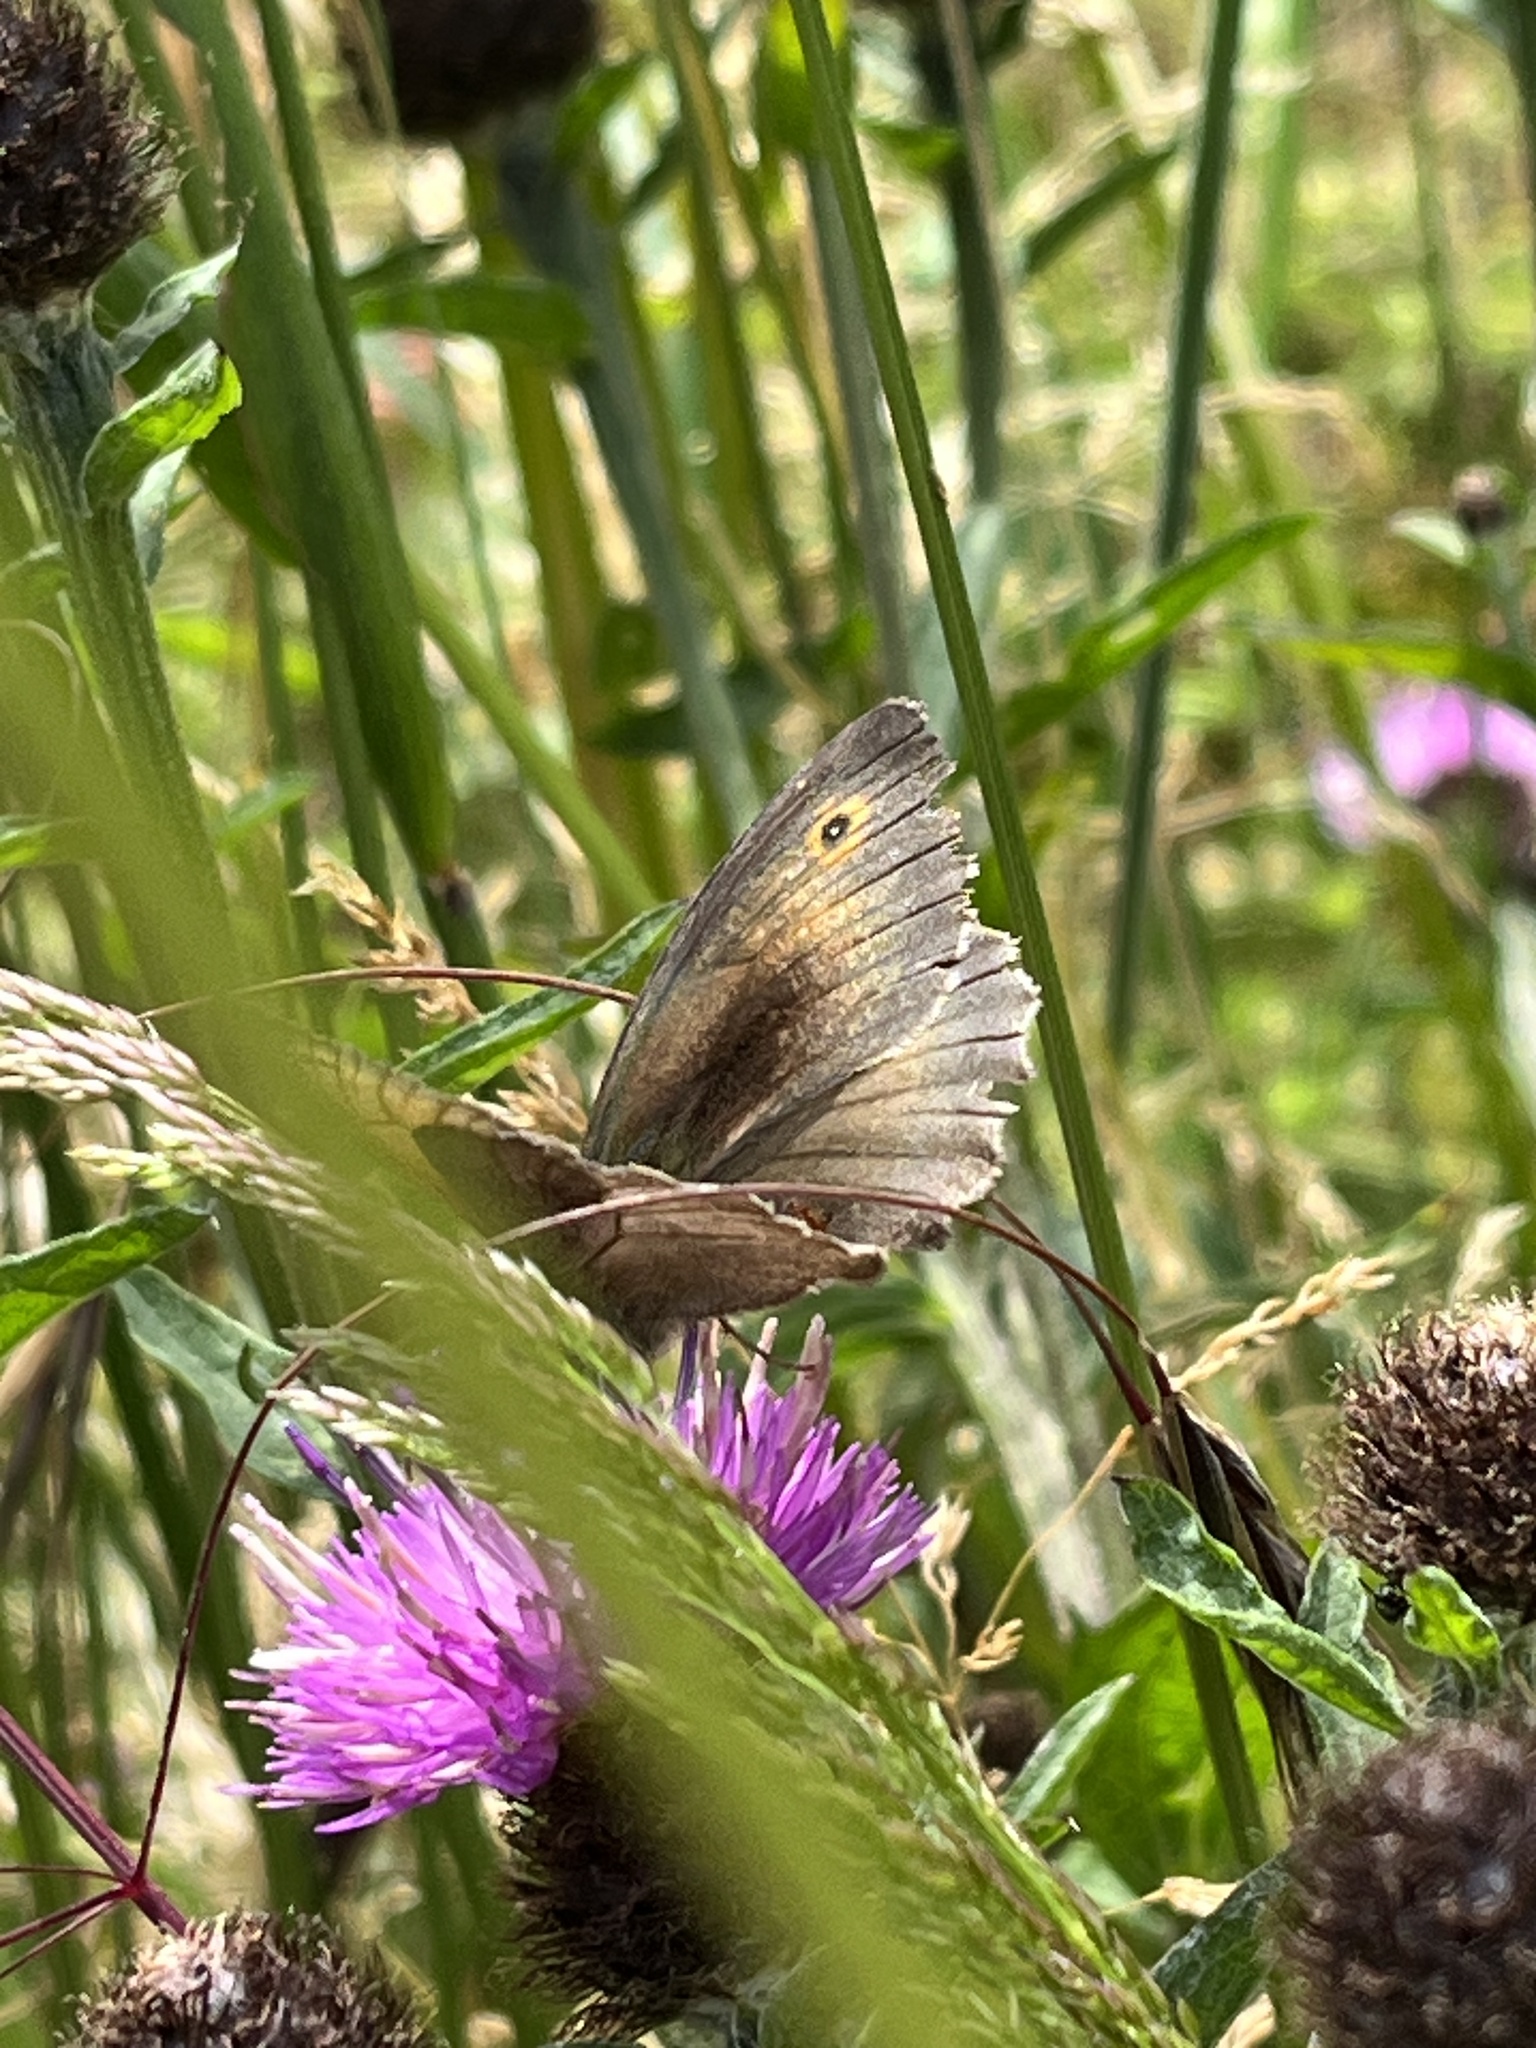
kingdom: Animalia
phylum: Arthropoda
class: Insecta
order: Lepidoptera
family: Nymphalidae
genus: Maniola
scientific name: Maniola jurtina
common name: Meadow brown
